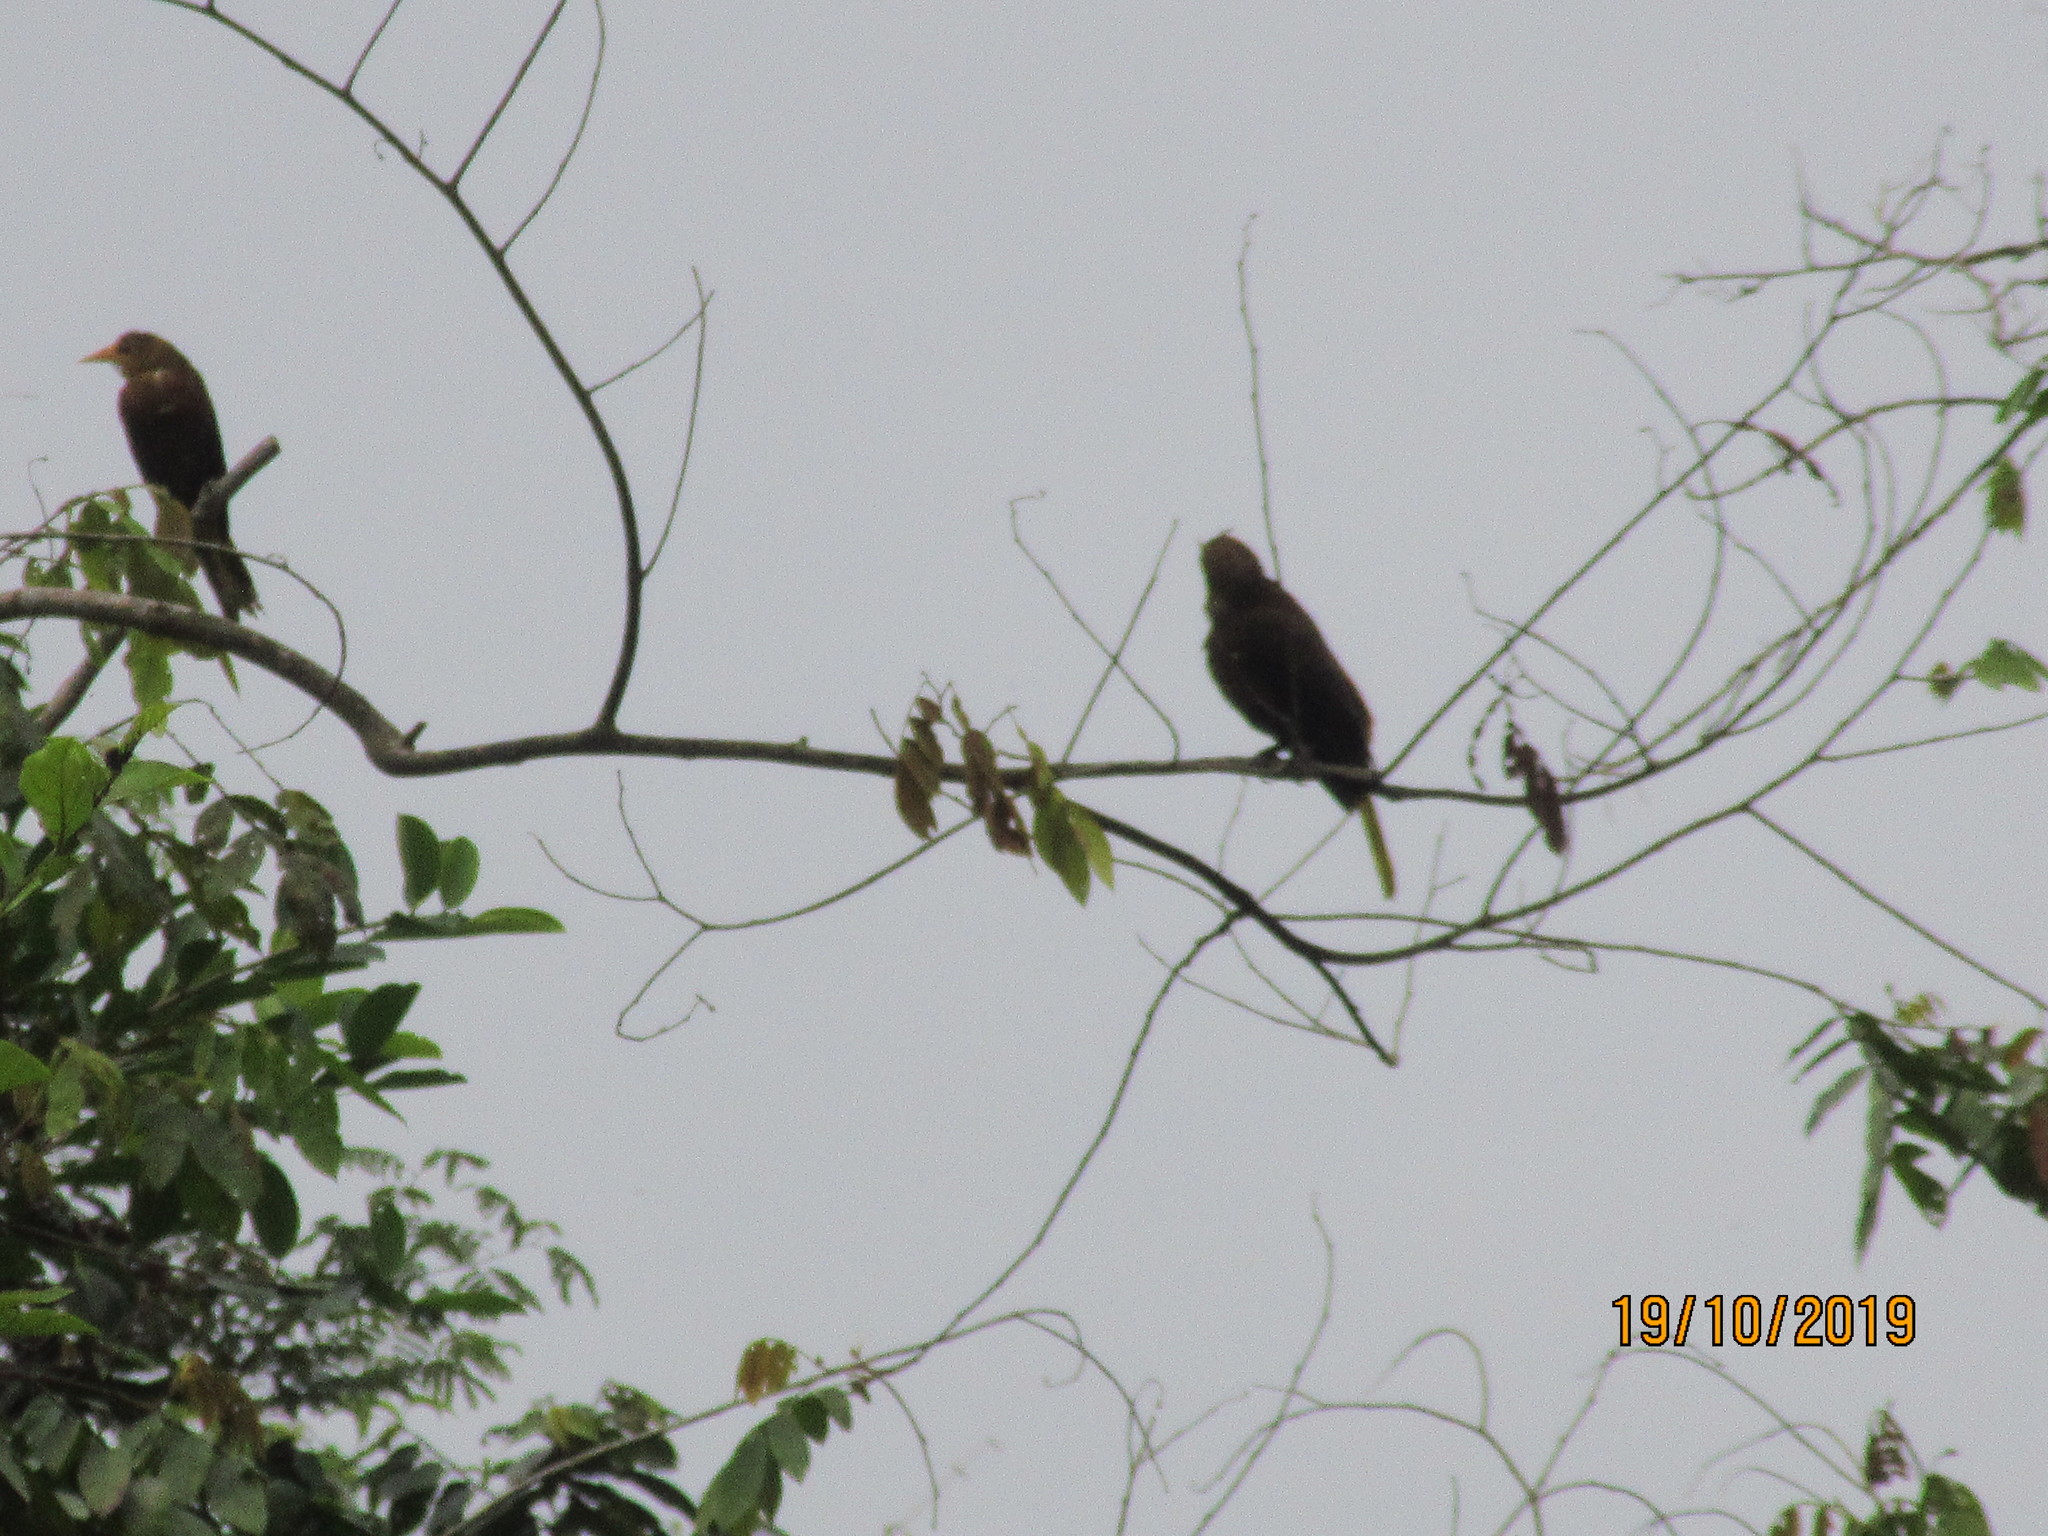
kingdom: Animalia
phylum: Chordata
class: Aves
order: Passeriformes
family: Icteridae
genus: Psarocolius
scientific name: Psarocolius angustifrons
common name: Russet-backed oropendola
